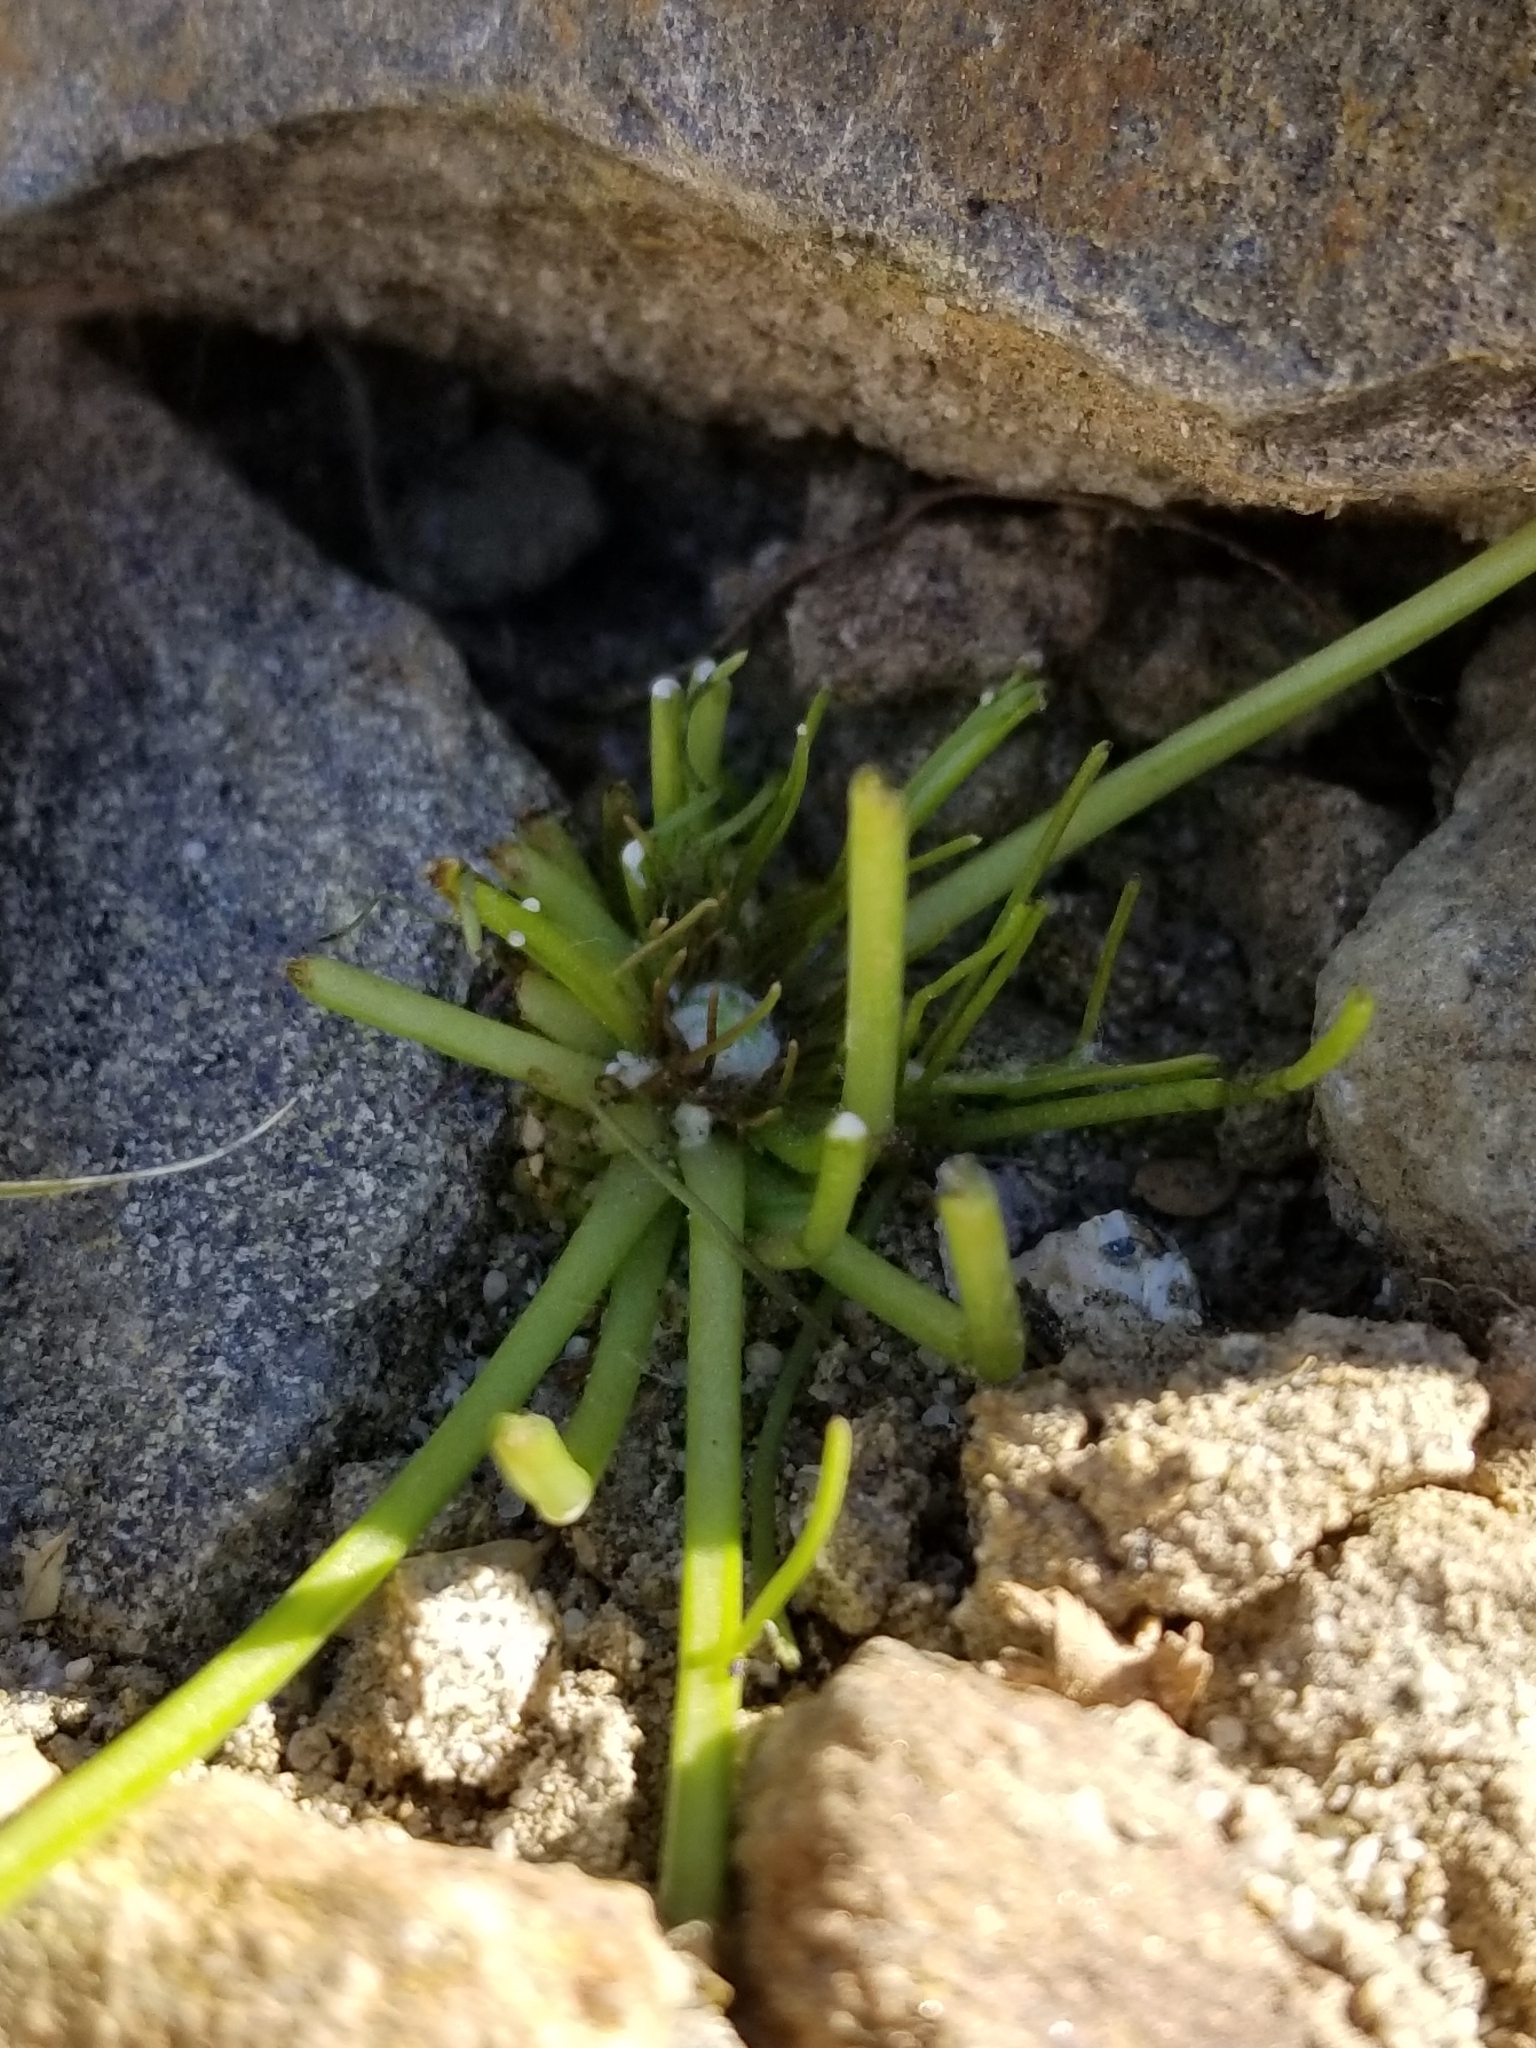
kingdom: Plantae
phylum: Tracheophyta
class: Magnoliopsida
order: Asterales
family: Asteraceae
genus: Malacothrix
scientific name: Malacothrix glabrata
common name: Smooth desert-dandelion
